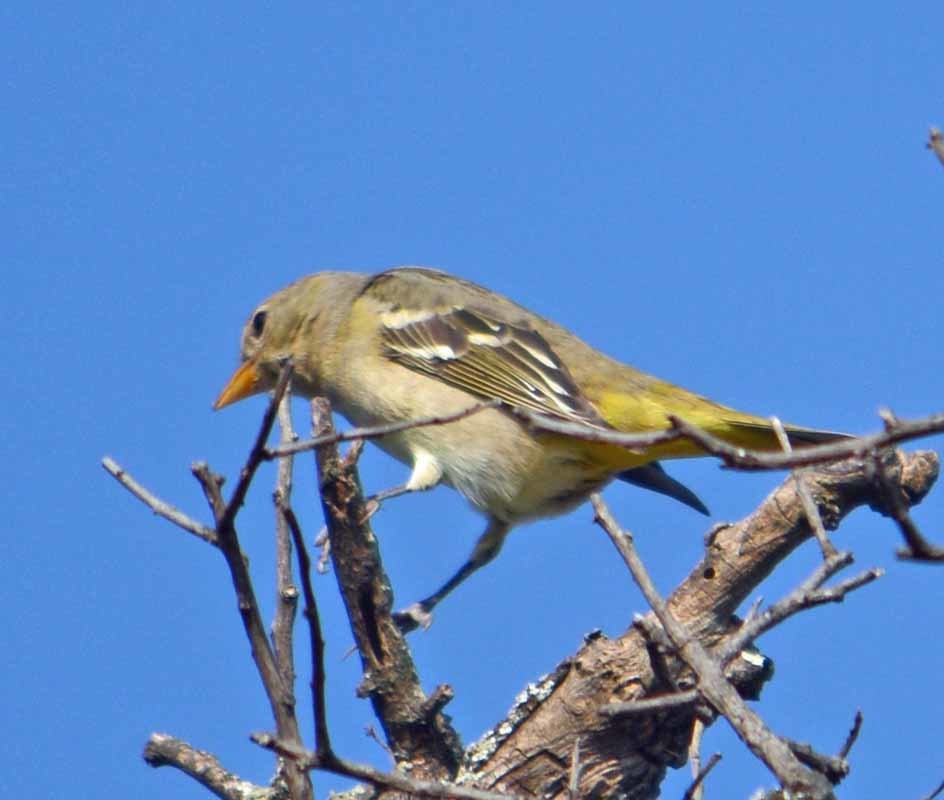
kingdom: Animalia
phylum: Chordata
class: Aves
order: Passeriformes
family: Cardinalidae
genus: Piranga
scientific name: Piranga ludoviciana
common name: Western tanager
